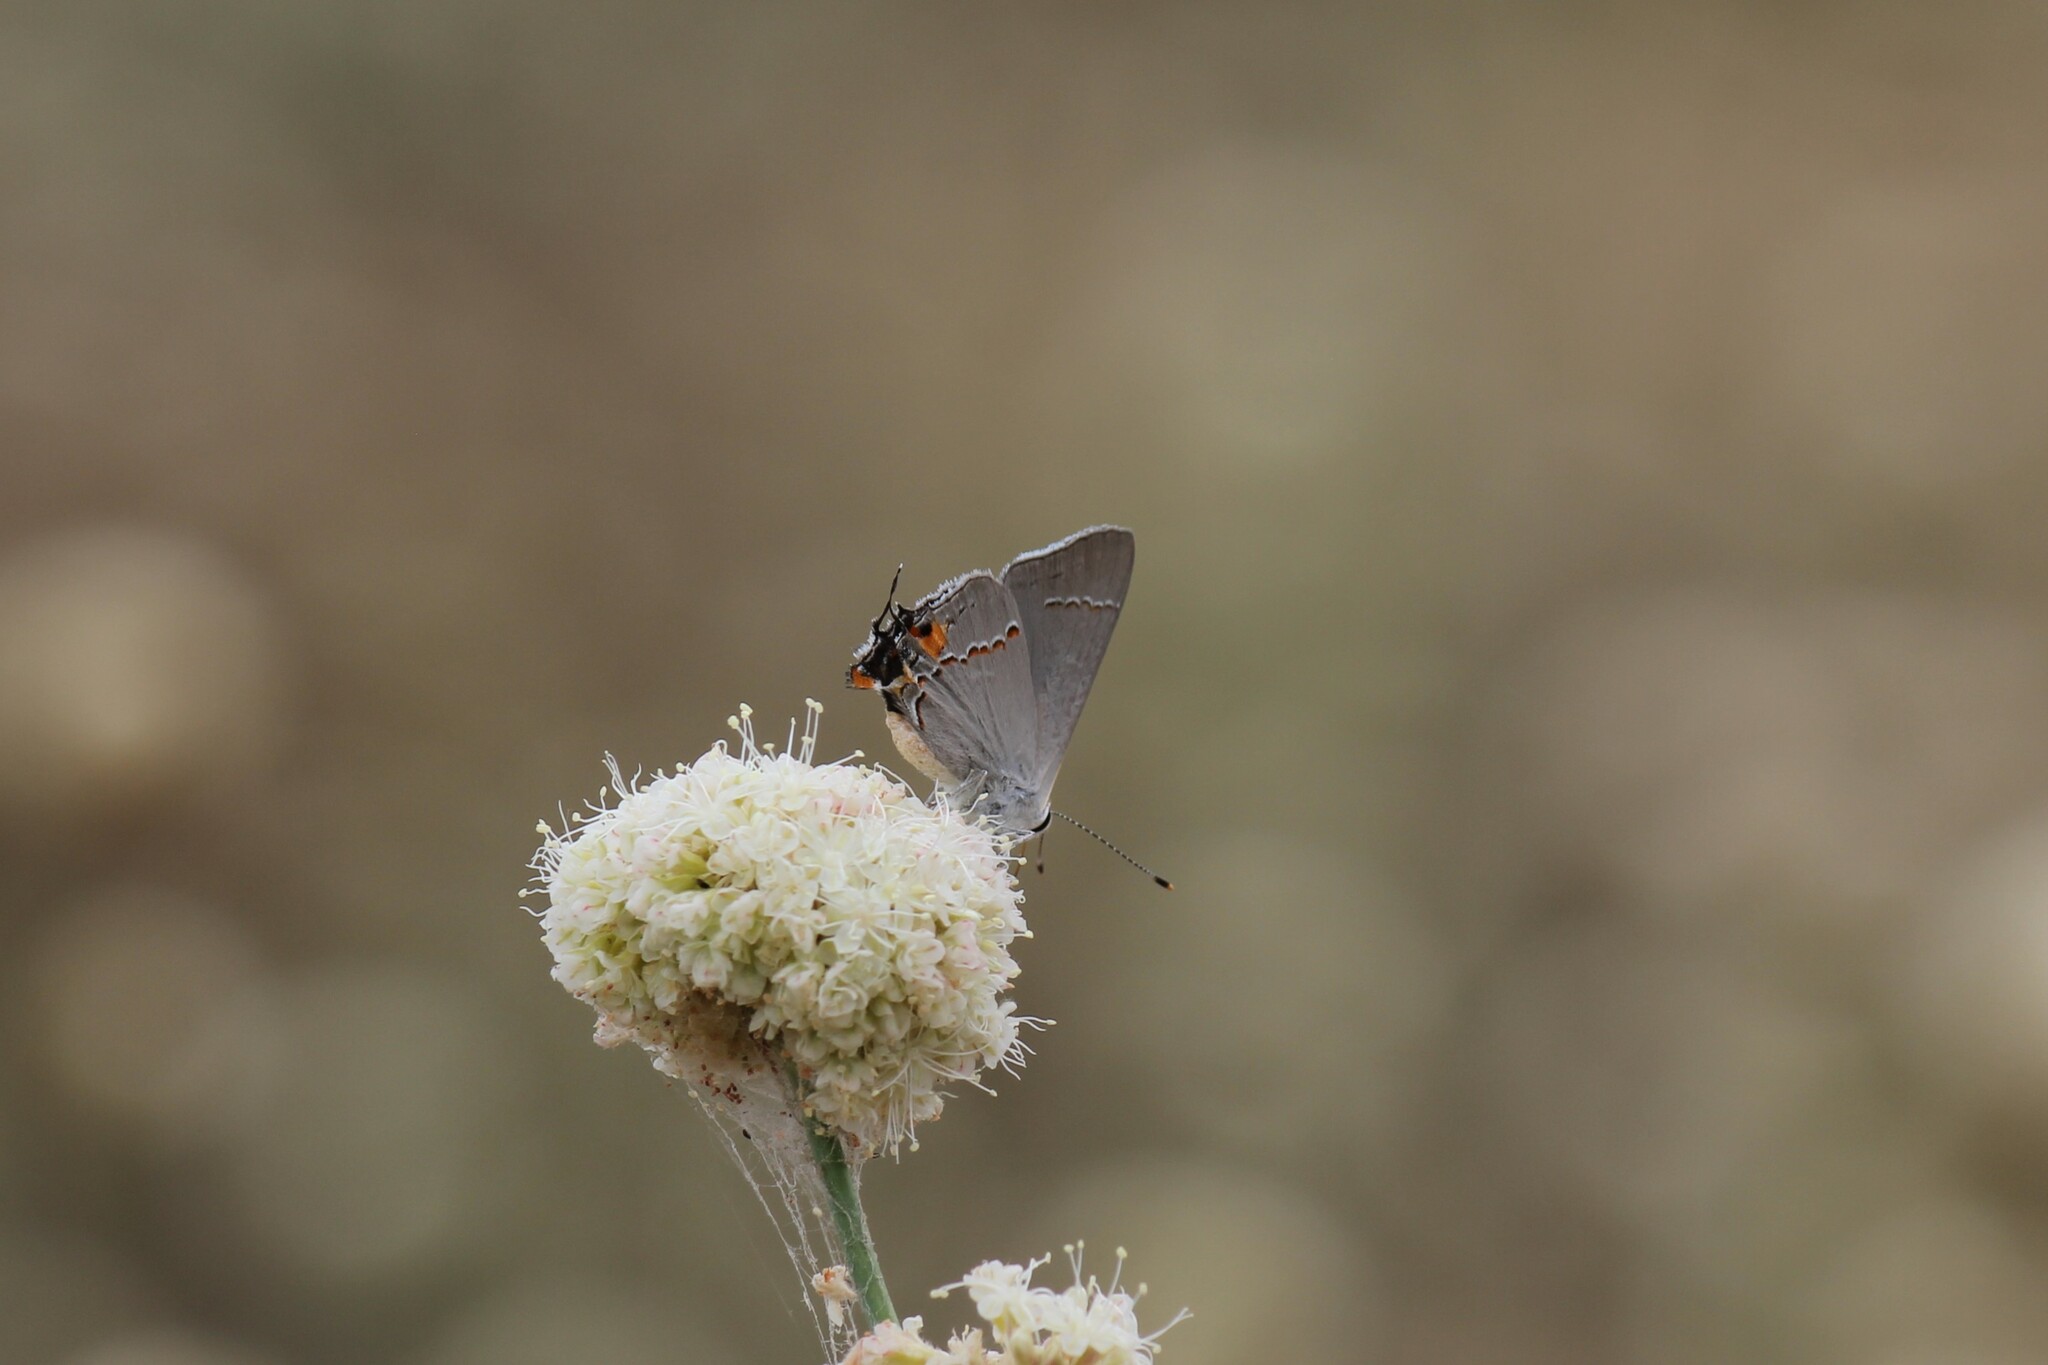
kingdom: Animalia
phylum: Arthropoda
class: Insecta
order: Lepidoptera
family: Lycaenidae
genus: Strymon
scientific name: Strymon melinus
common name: Gray hairstreak
